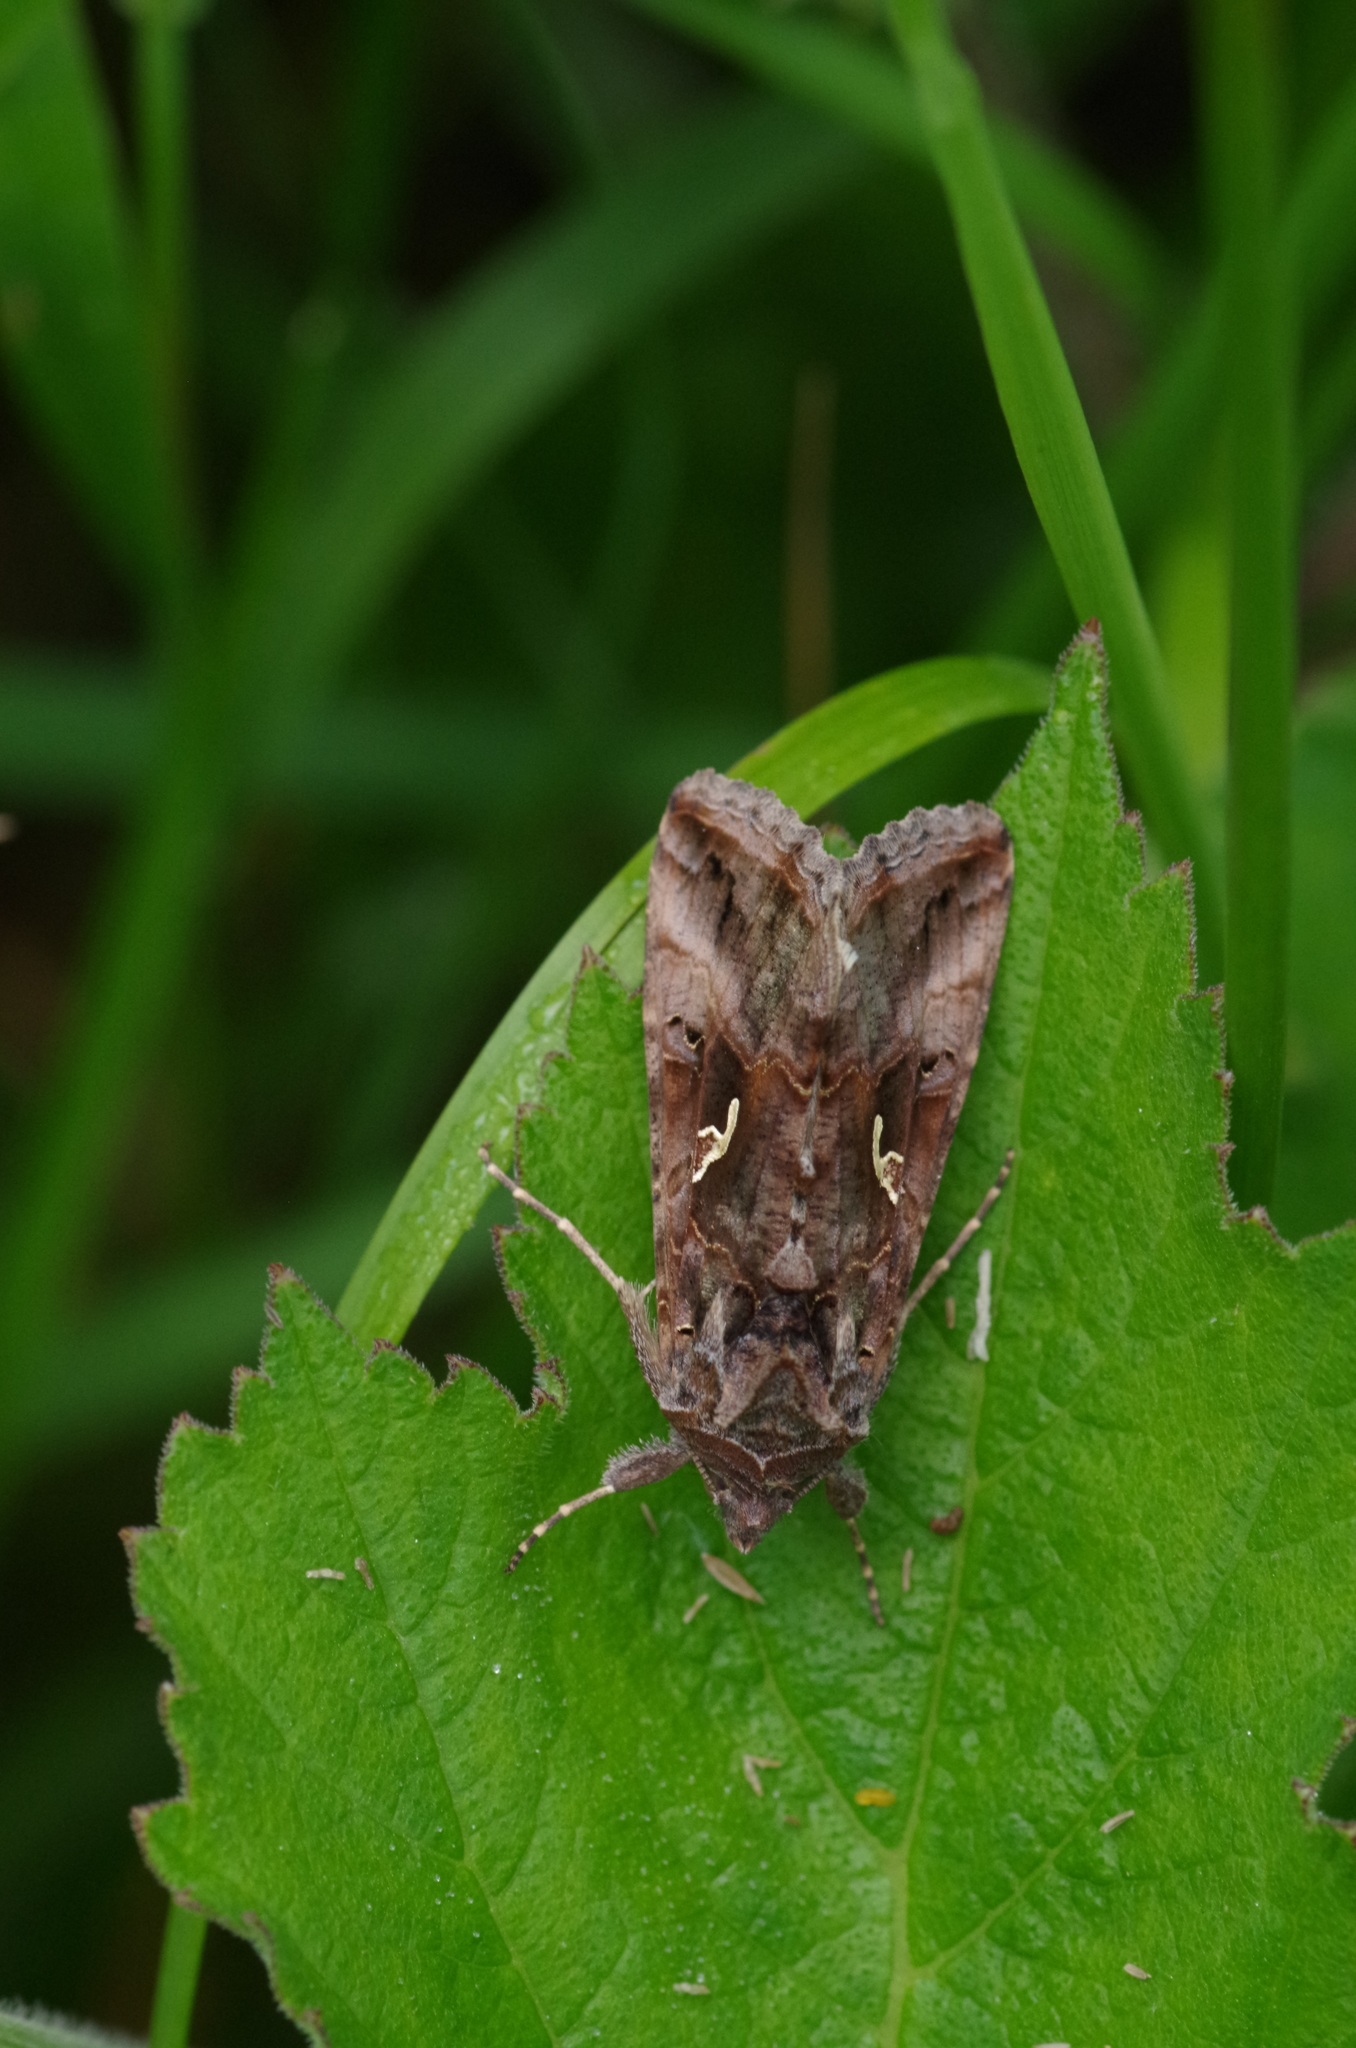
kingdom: Animalia
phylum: Arthropoda
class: Insecta
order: Lepidoptera
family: Noctuidae
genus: Autographa
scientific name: Autographa gamma
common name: Silver y
